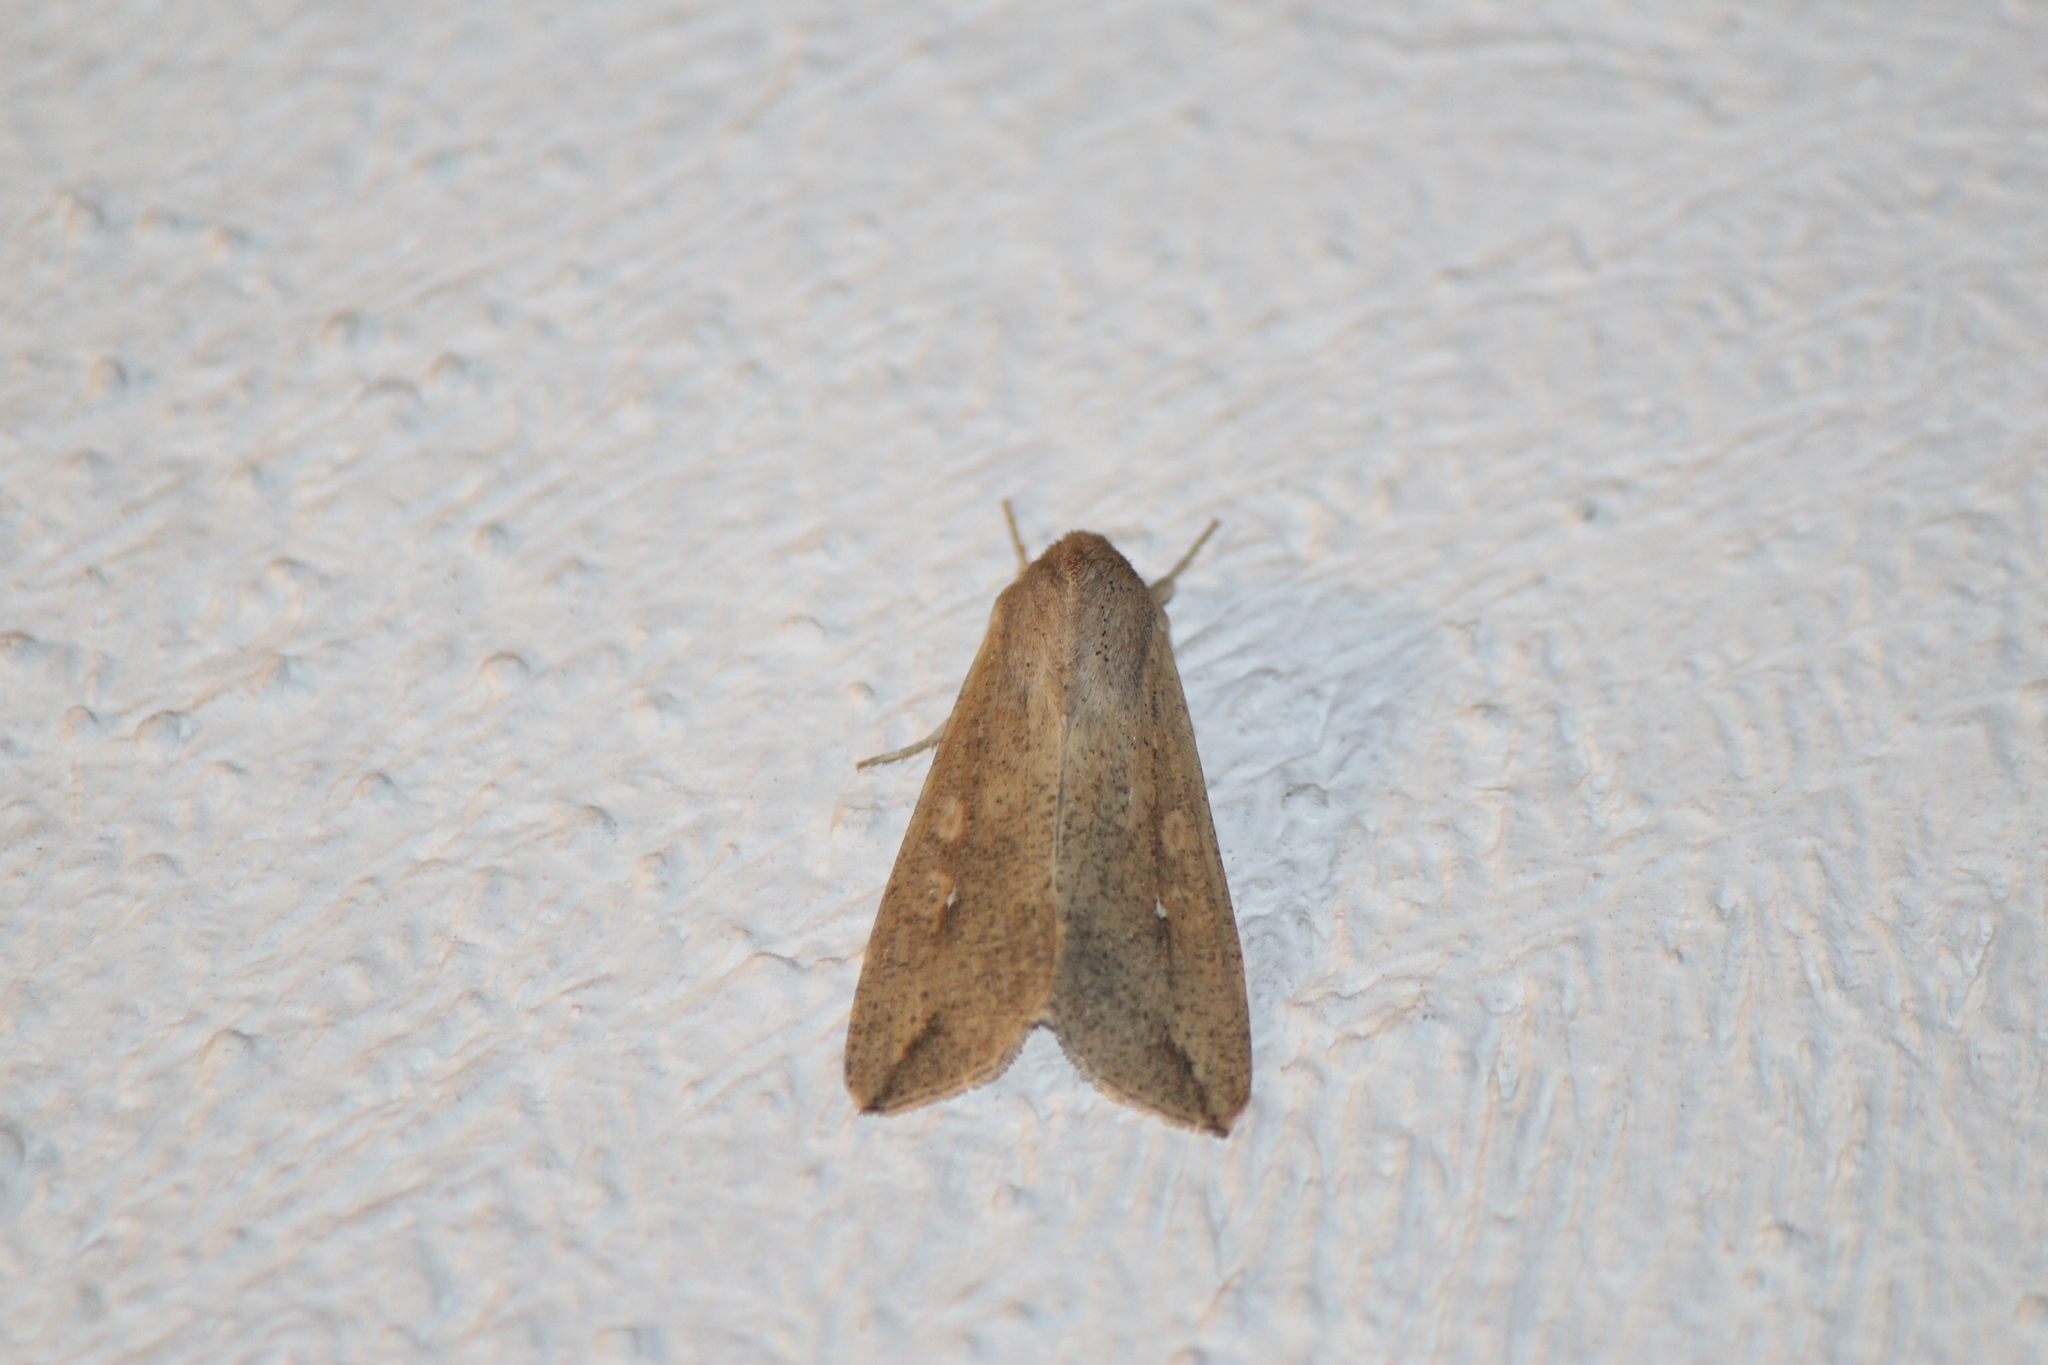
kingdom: Animalia
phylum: Arthropoda
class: Insecta
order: Lepidoptera
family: Noctuidae
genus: Mythimna
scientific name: Mythimna unipuncta
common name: White-speck
